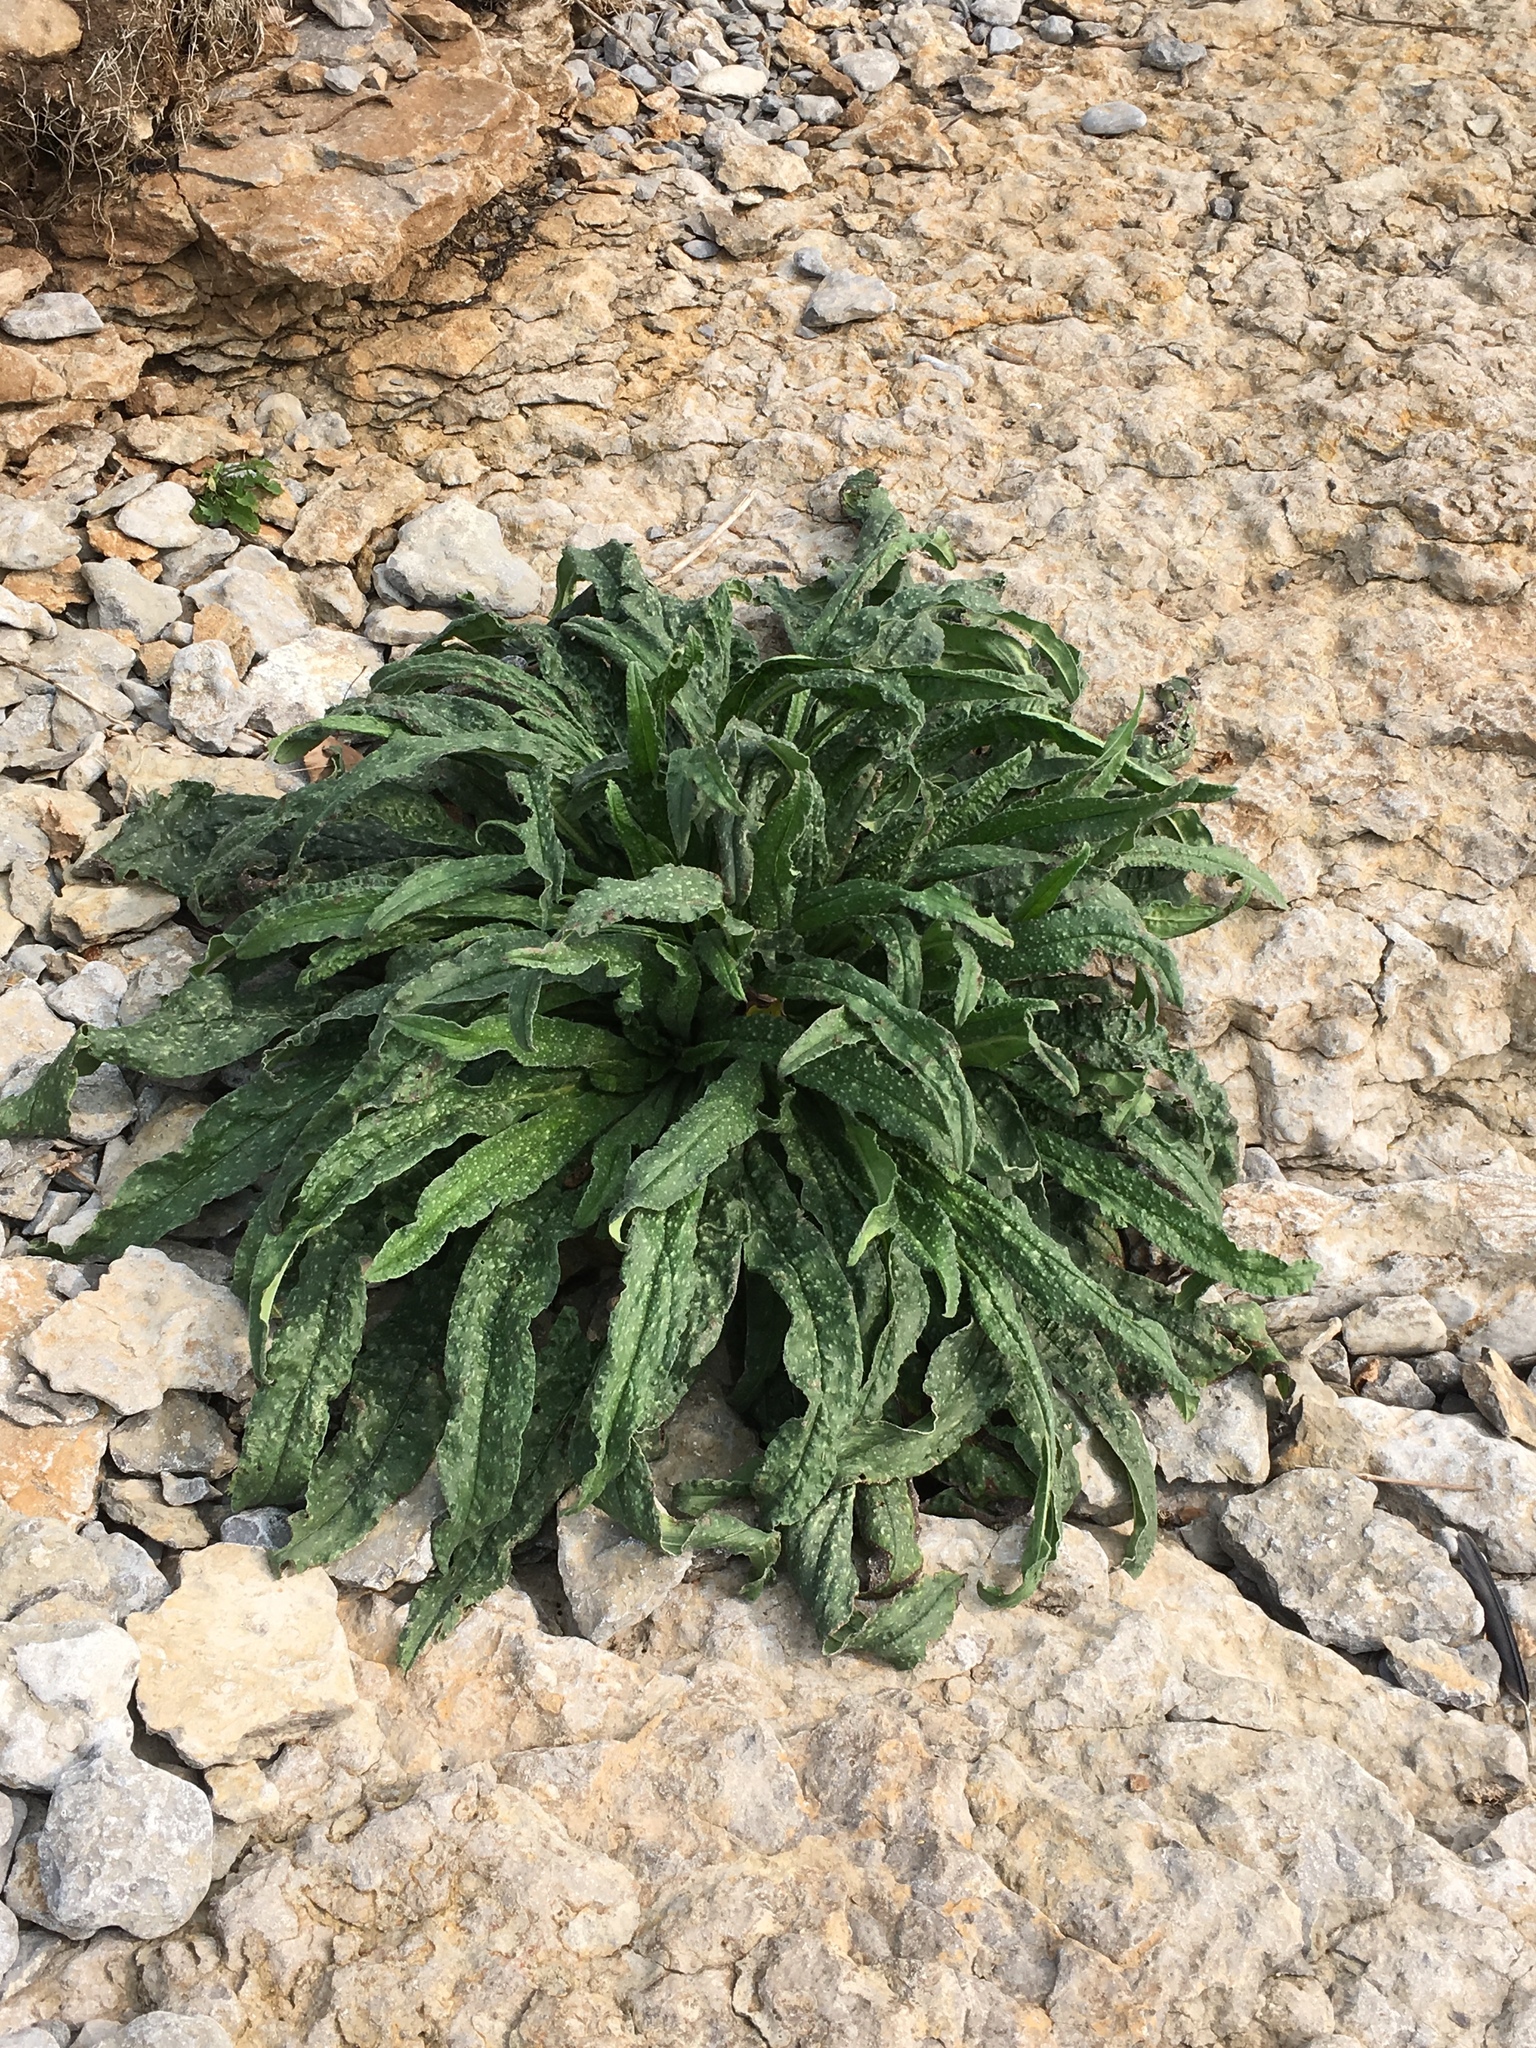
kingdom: Plantae
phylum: Tracheophyta
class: Magnoliopsida
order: Boraginales
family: Boraginaceae
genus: Echium
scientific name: Echium vulgare
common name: Common viper's bugloss
